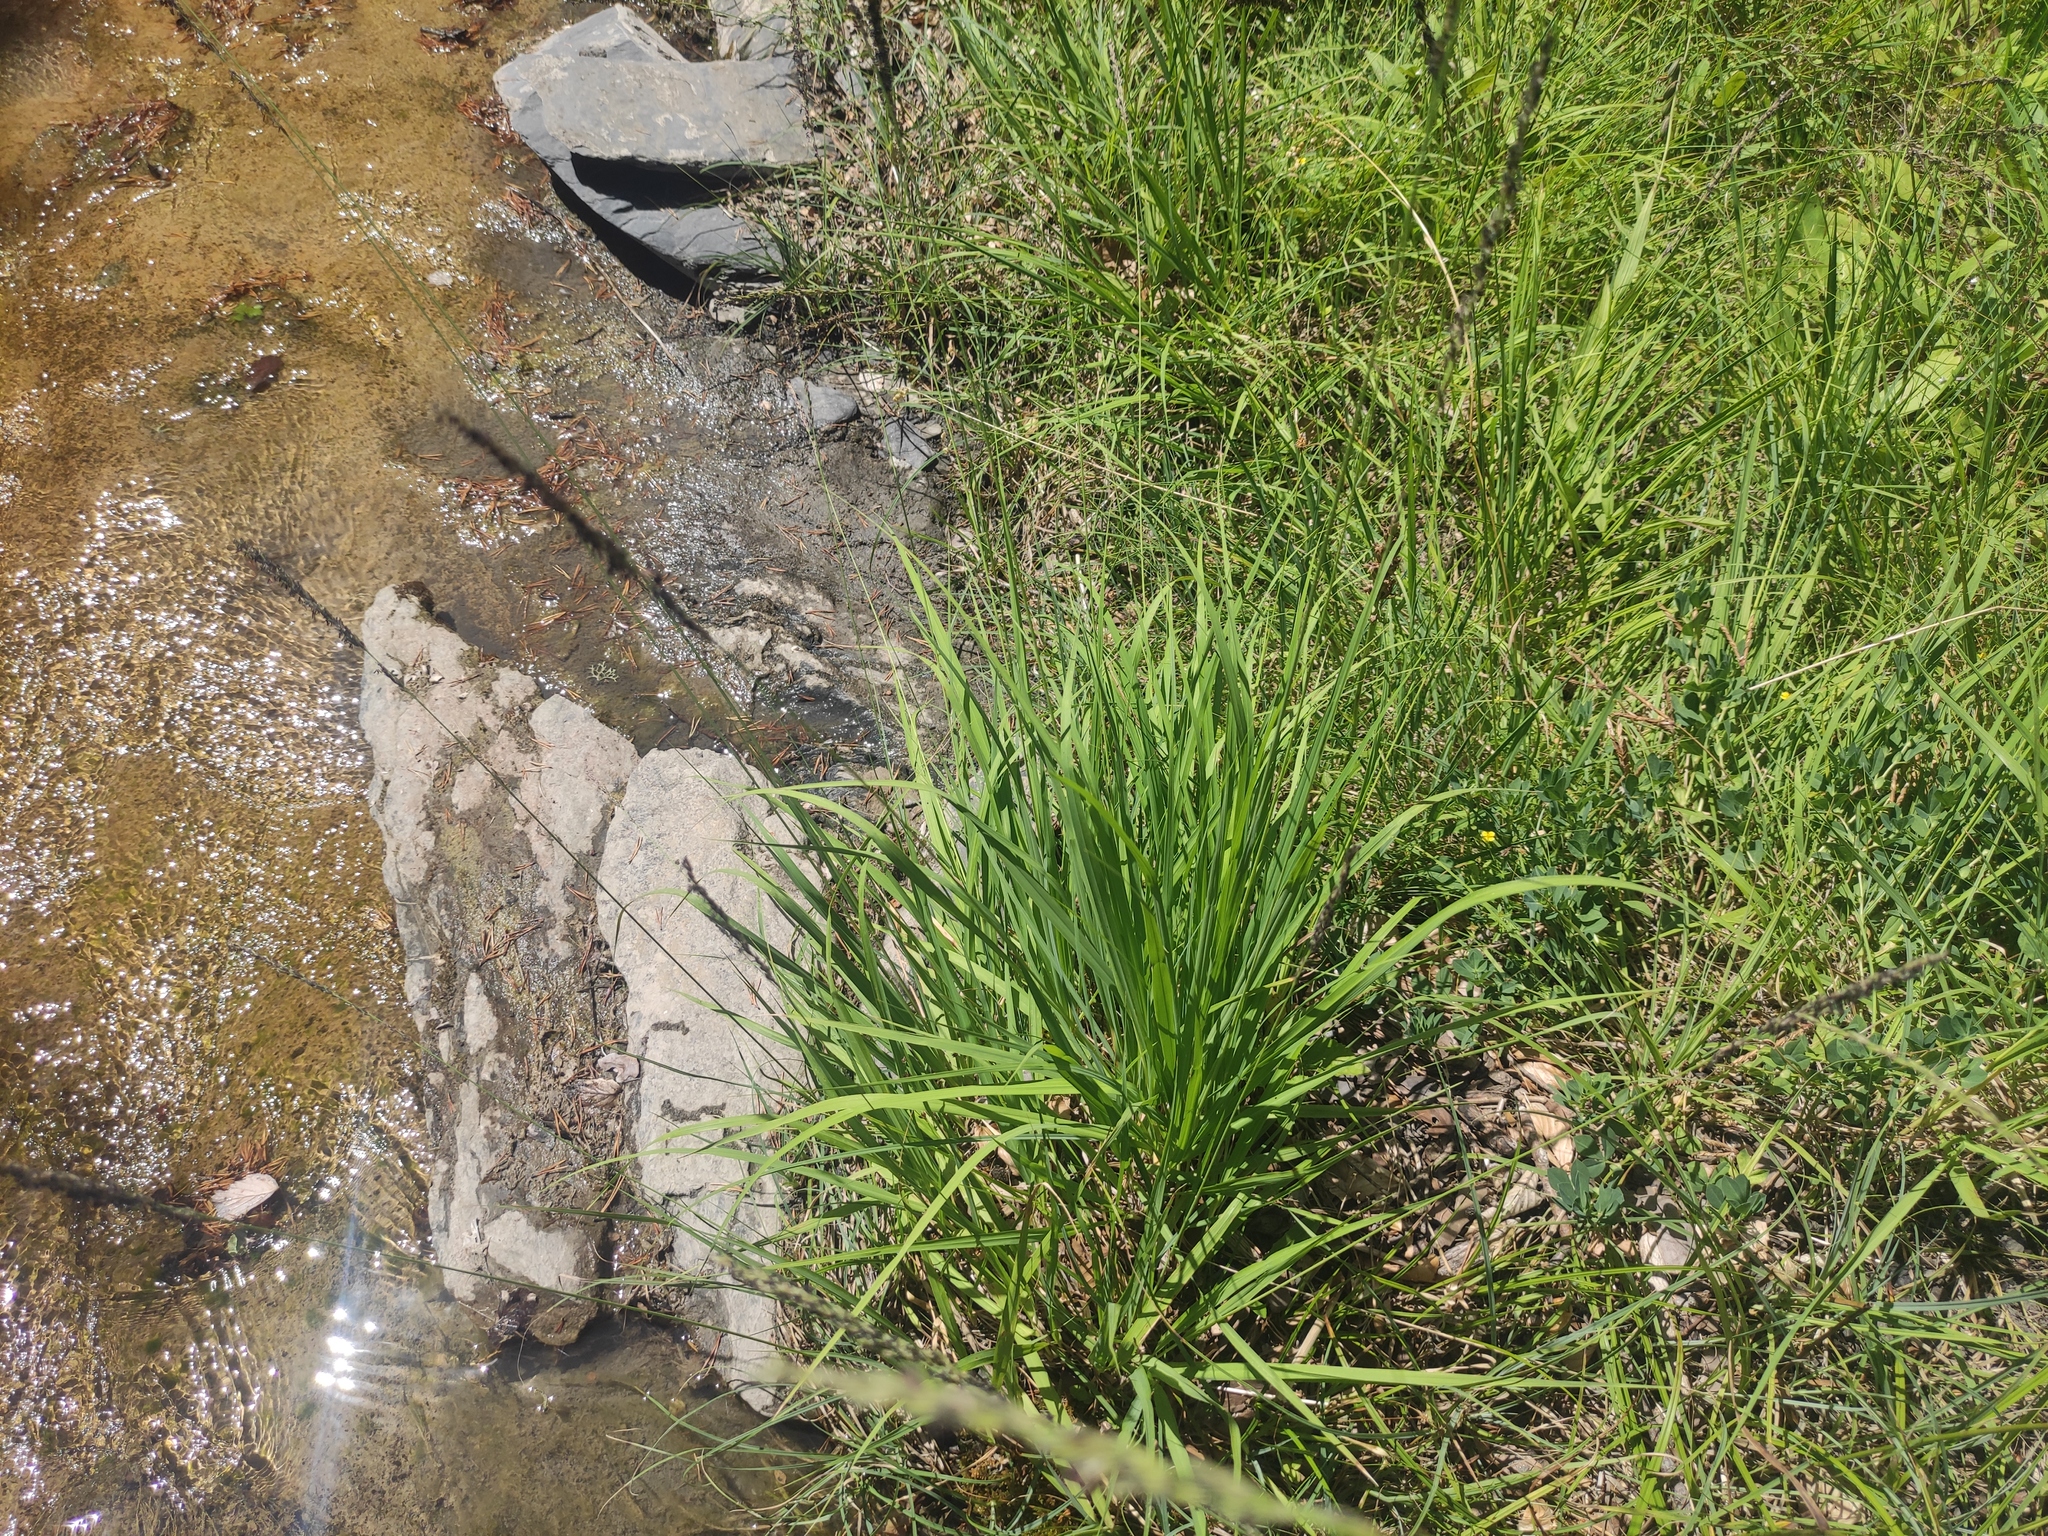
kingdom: Plantae
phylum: Tracheophyta
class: Liliopsida
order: Poales
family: Poaceae
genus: Molinia
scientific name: Molinia caerulea
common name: Purple moor-grass
